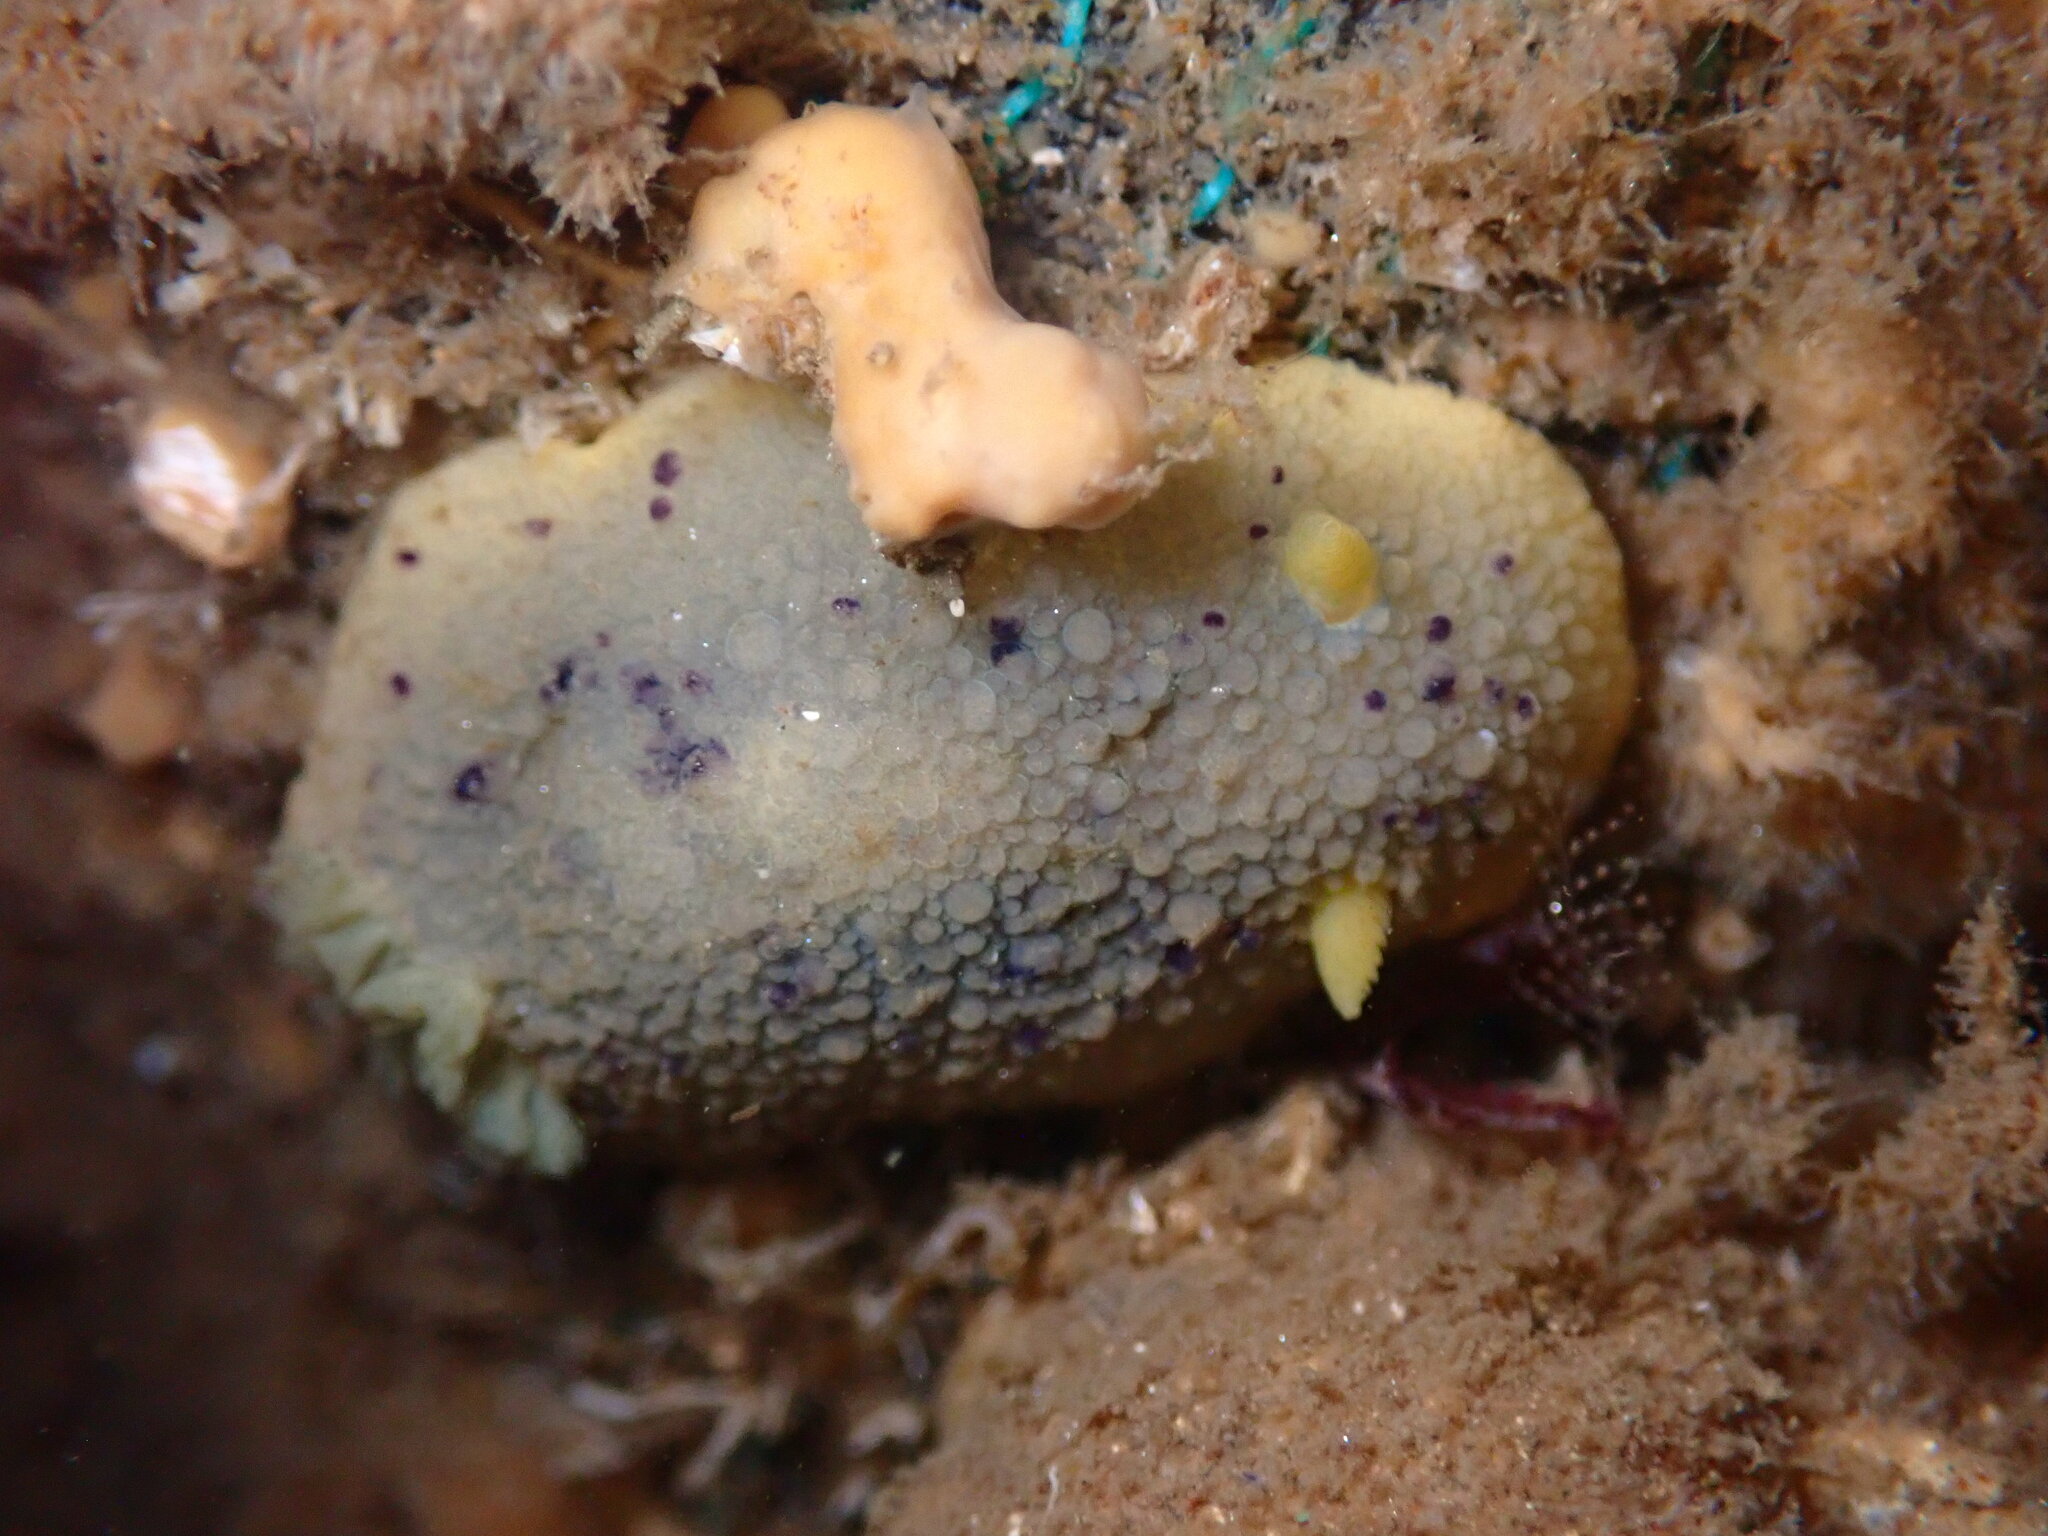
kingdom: Animalia
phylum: Mollusca
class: Gastropoda
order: Nudibranchia
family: Dorididae
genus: Doris
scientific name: Doris montereyensis
